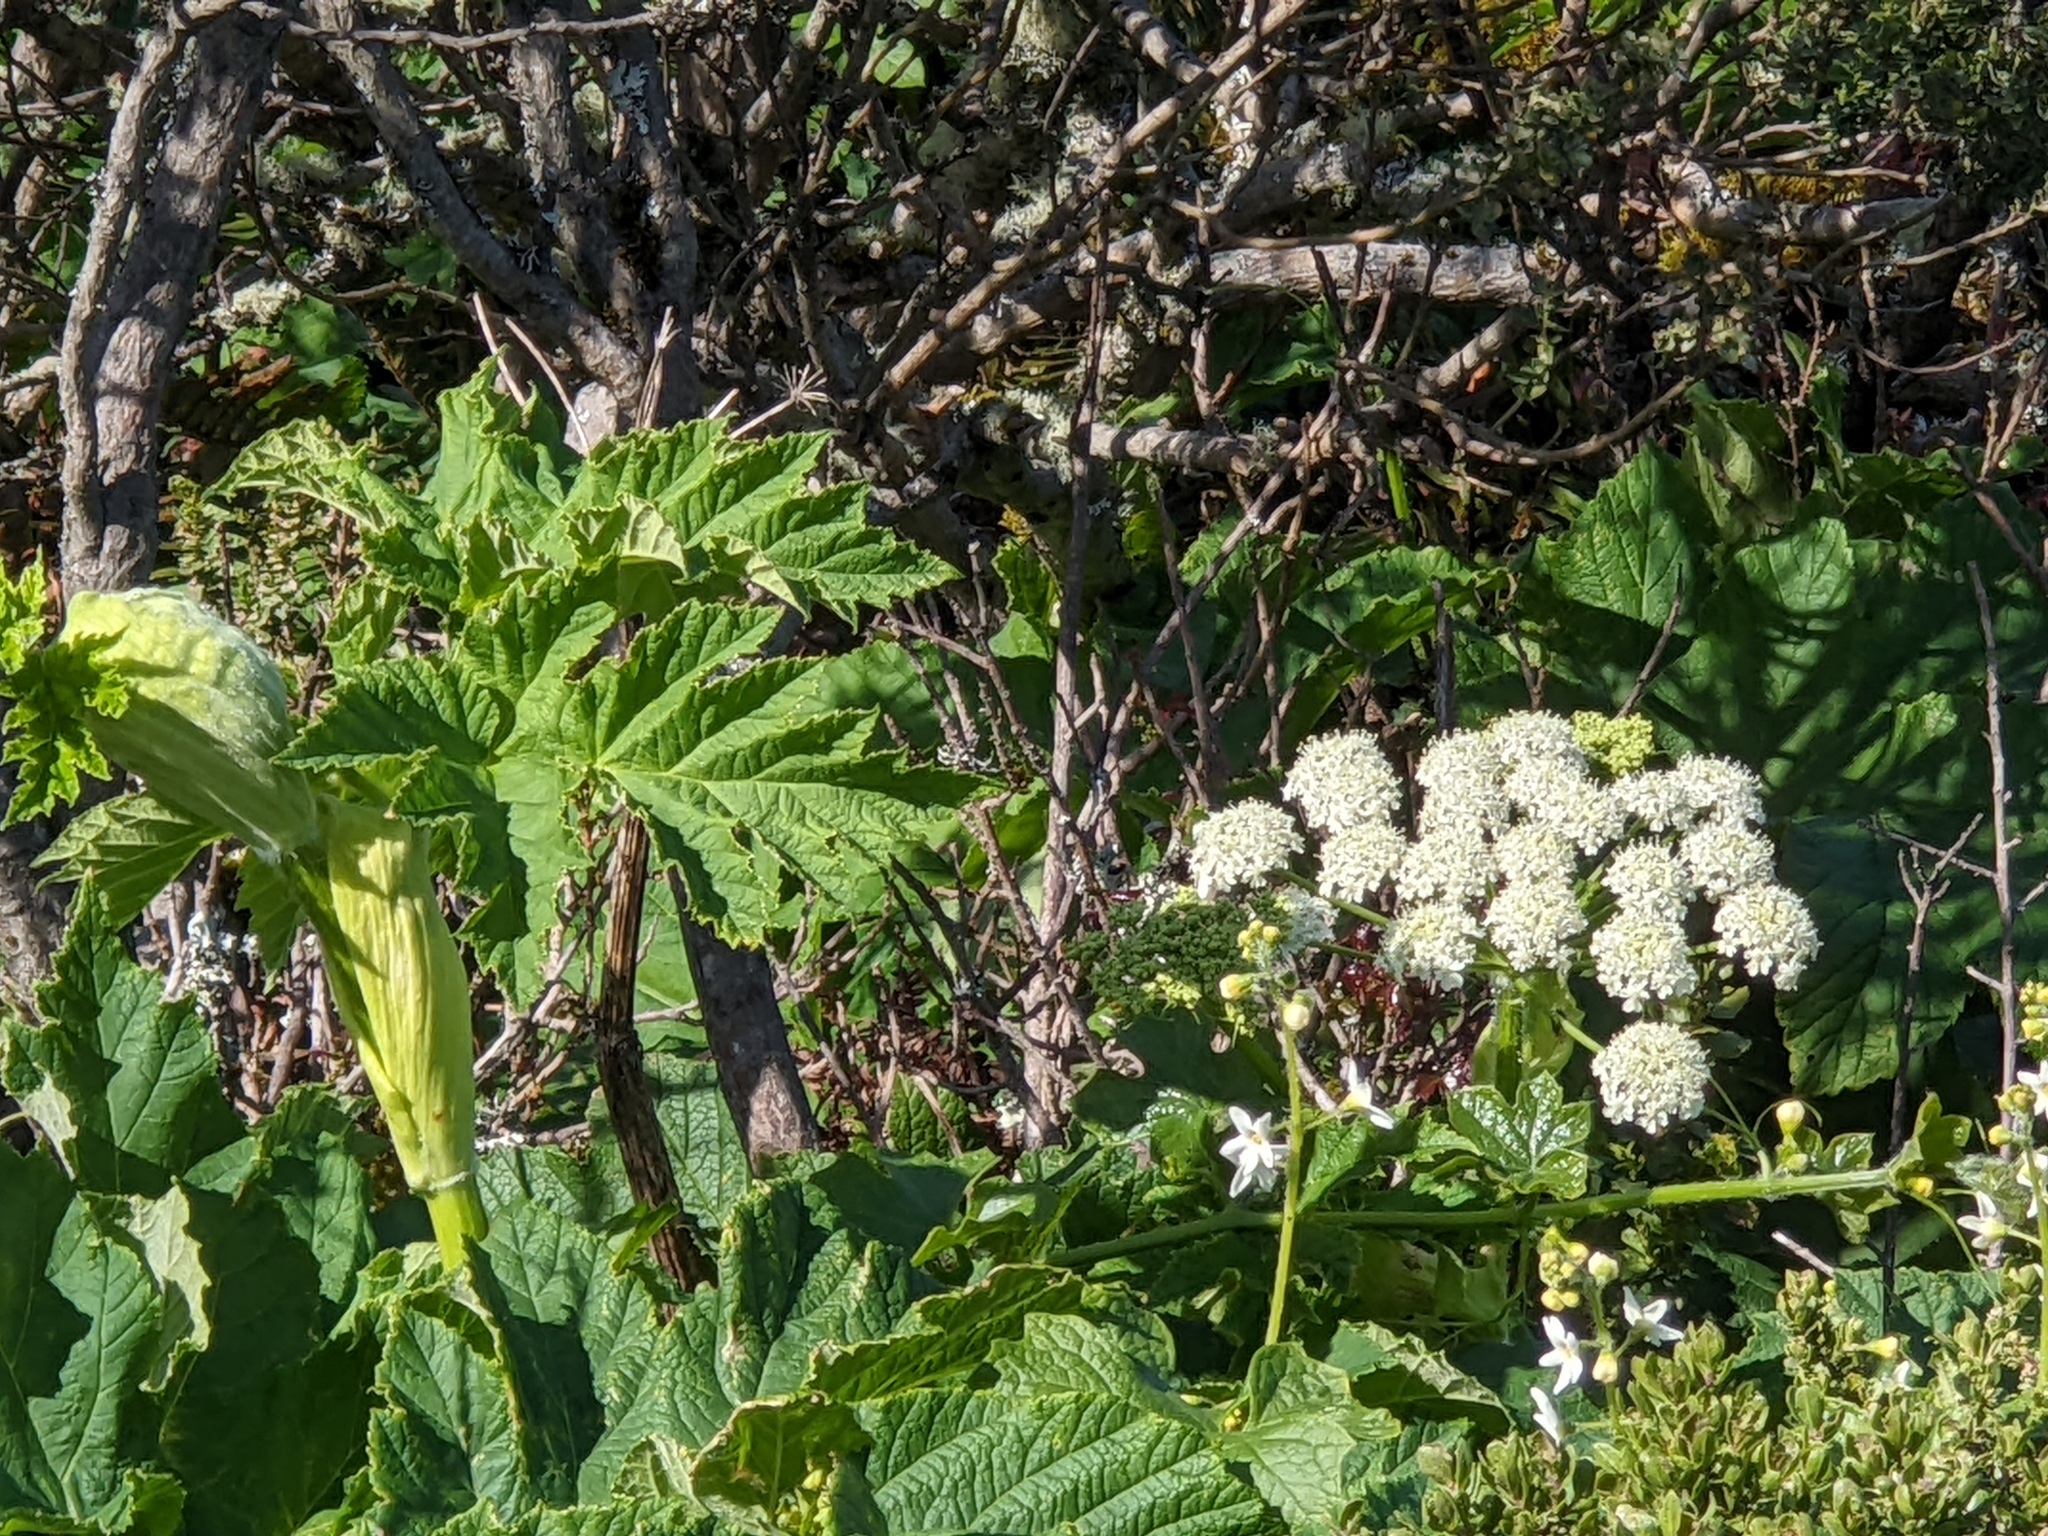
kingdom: Plantae
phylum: Tracheophyta
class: Magnoliopsida
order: Apiales
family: Apiaceae
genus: Heracleum
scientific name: Heracleum maximum
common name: American cow parsnip
